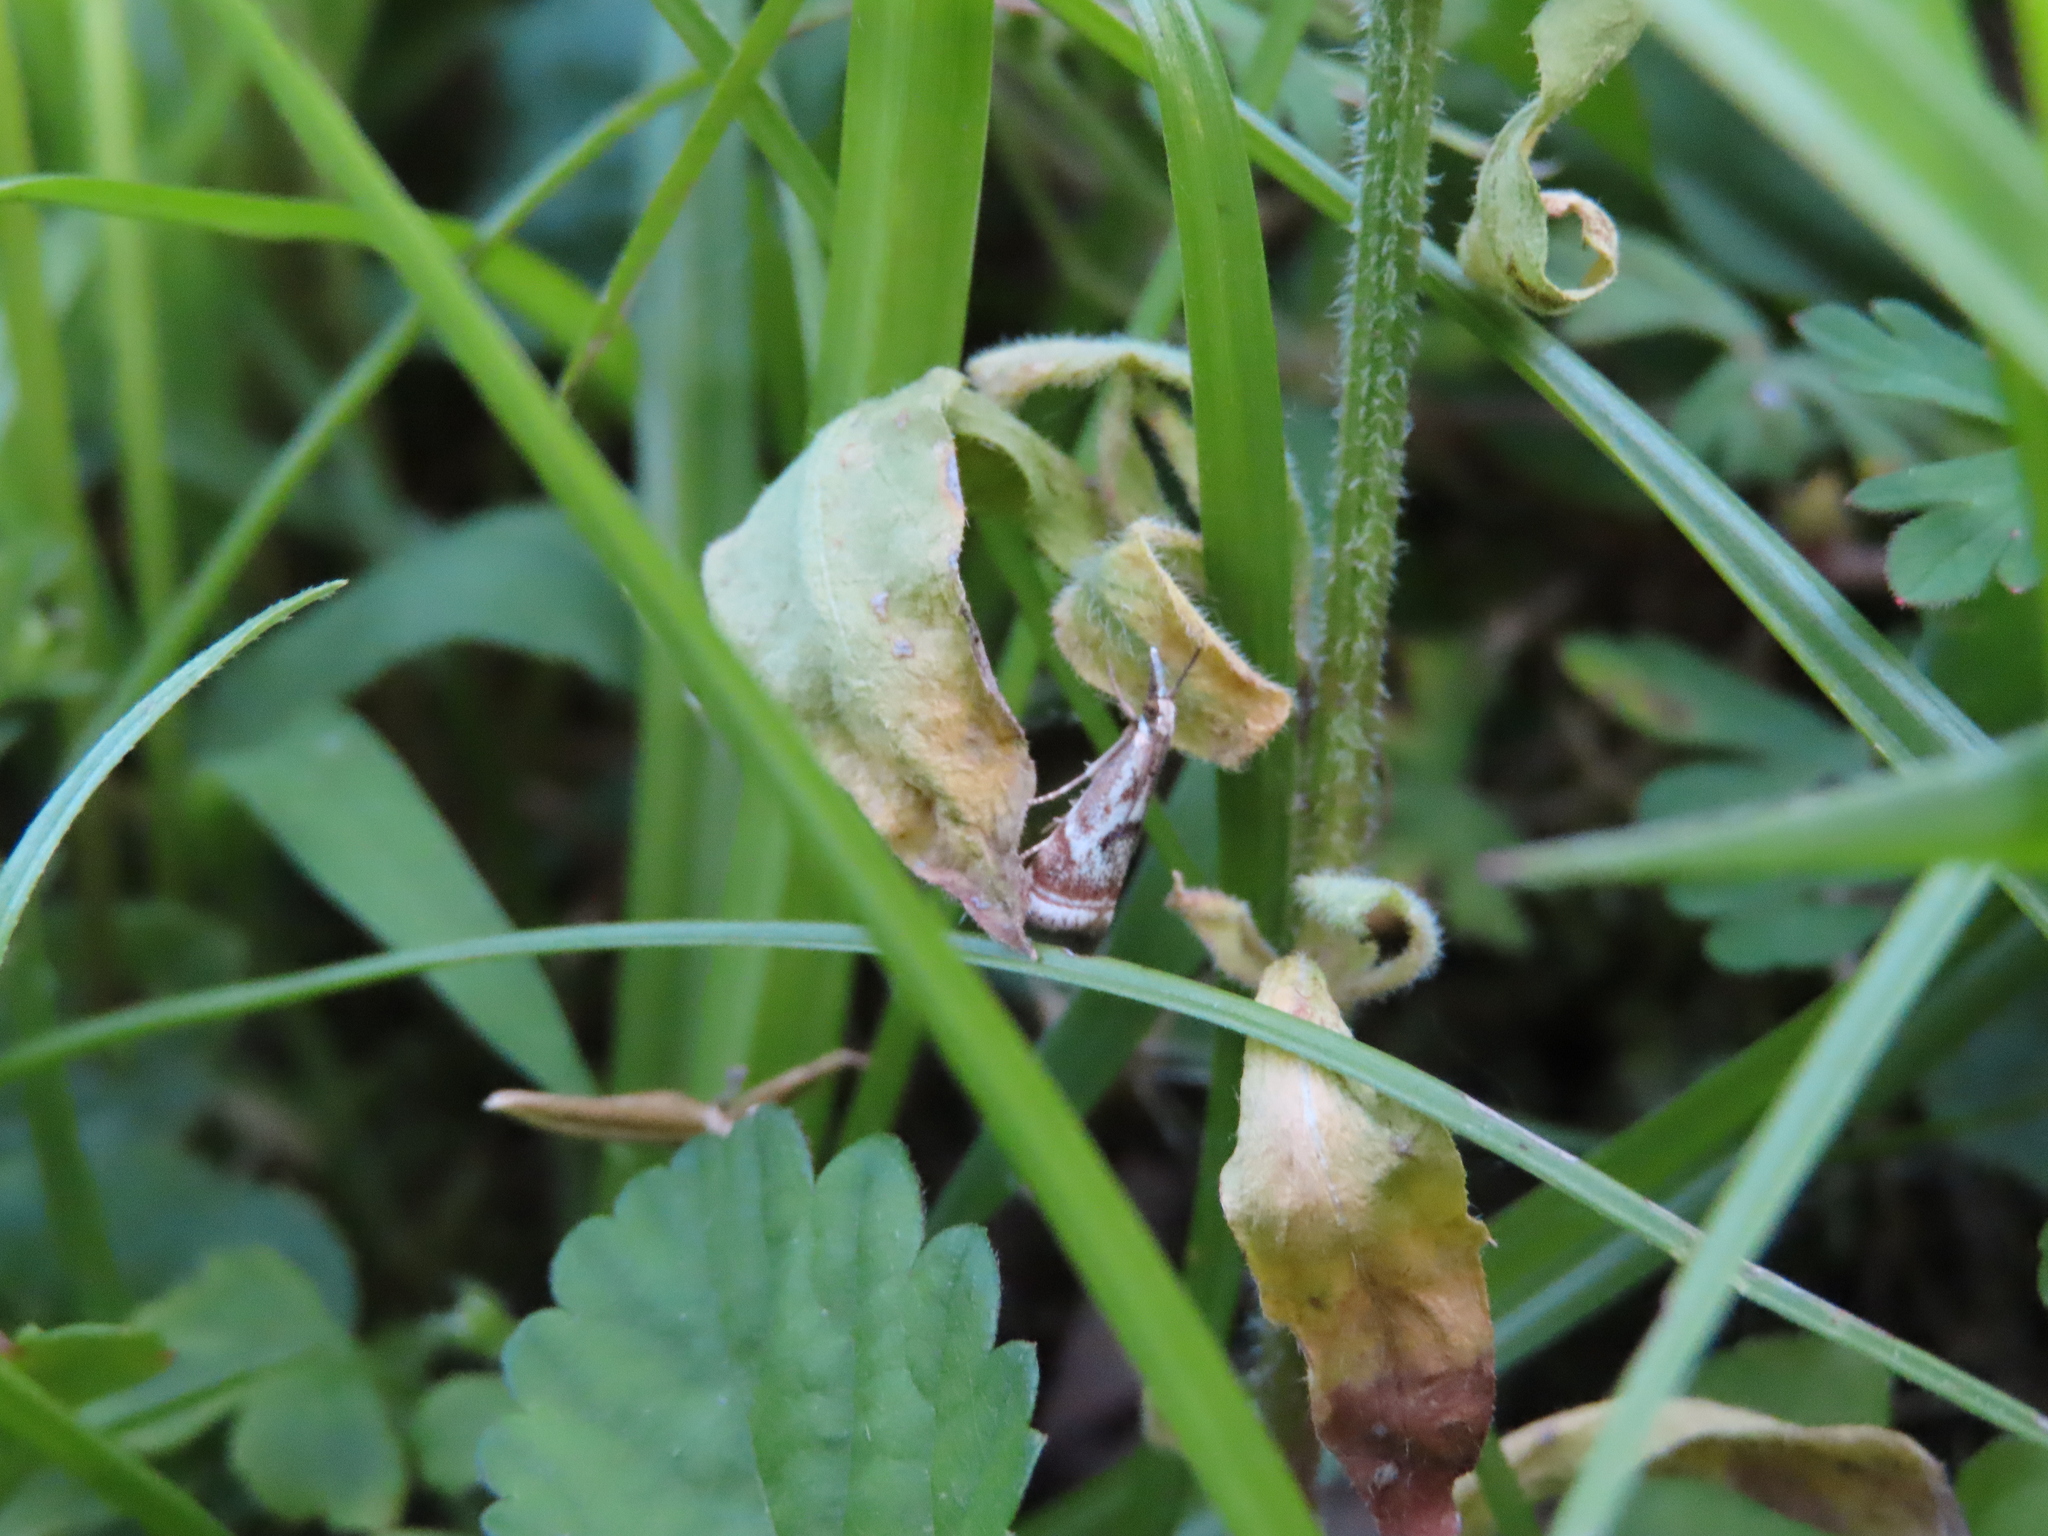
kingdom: Animalia
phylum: Arthropoda
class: Insecta
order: Lepidoptera
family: Crambidae
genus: Microcrambus
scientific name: Microcrambus elegans
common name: Elegant grass-veneer
